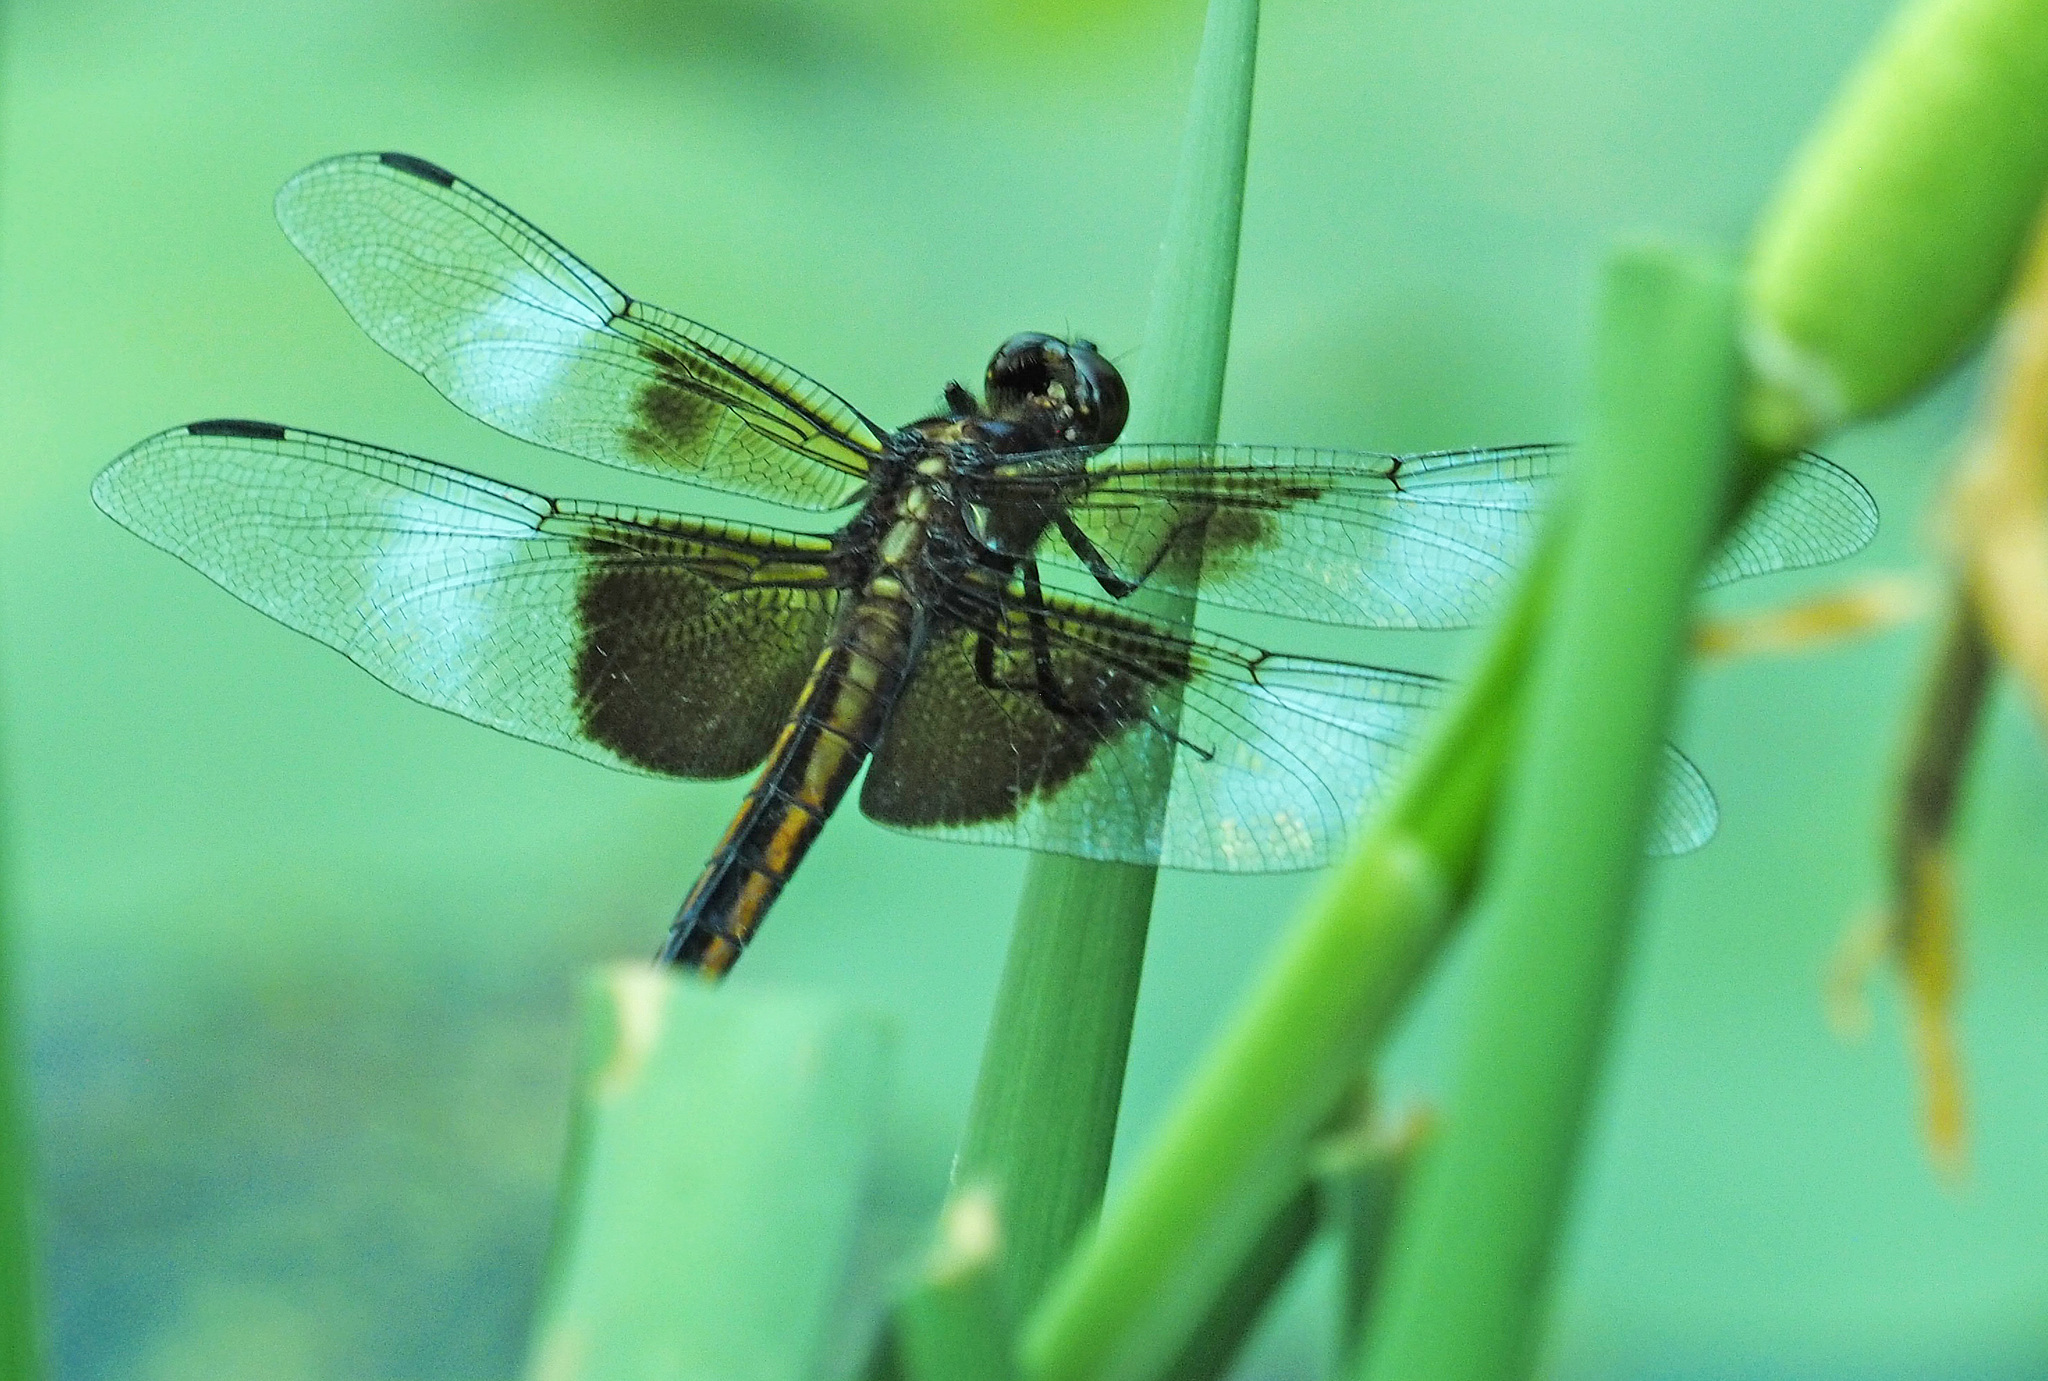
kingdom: Animalia
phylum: Arthropoda
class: Insecta
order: Odonata
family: Libellulidae
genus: Libellula
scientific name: Libellula luctuosa
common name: Widow skimmer
